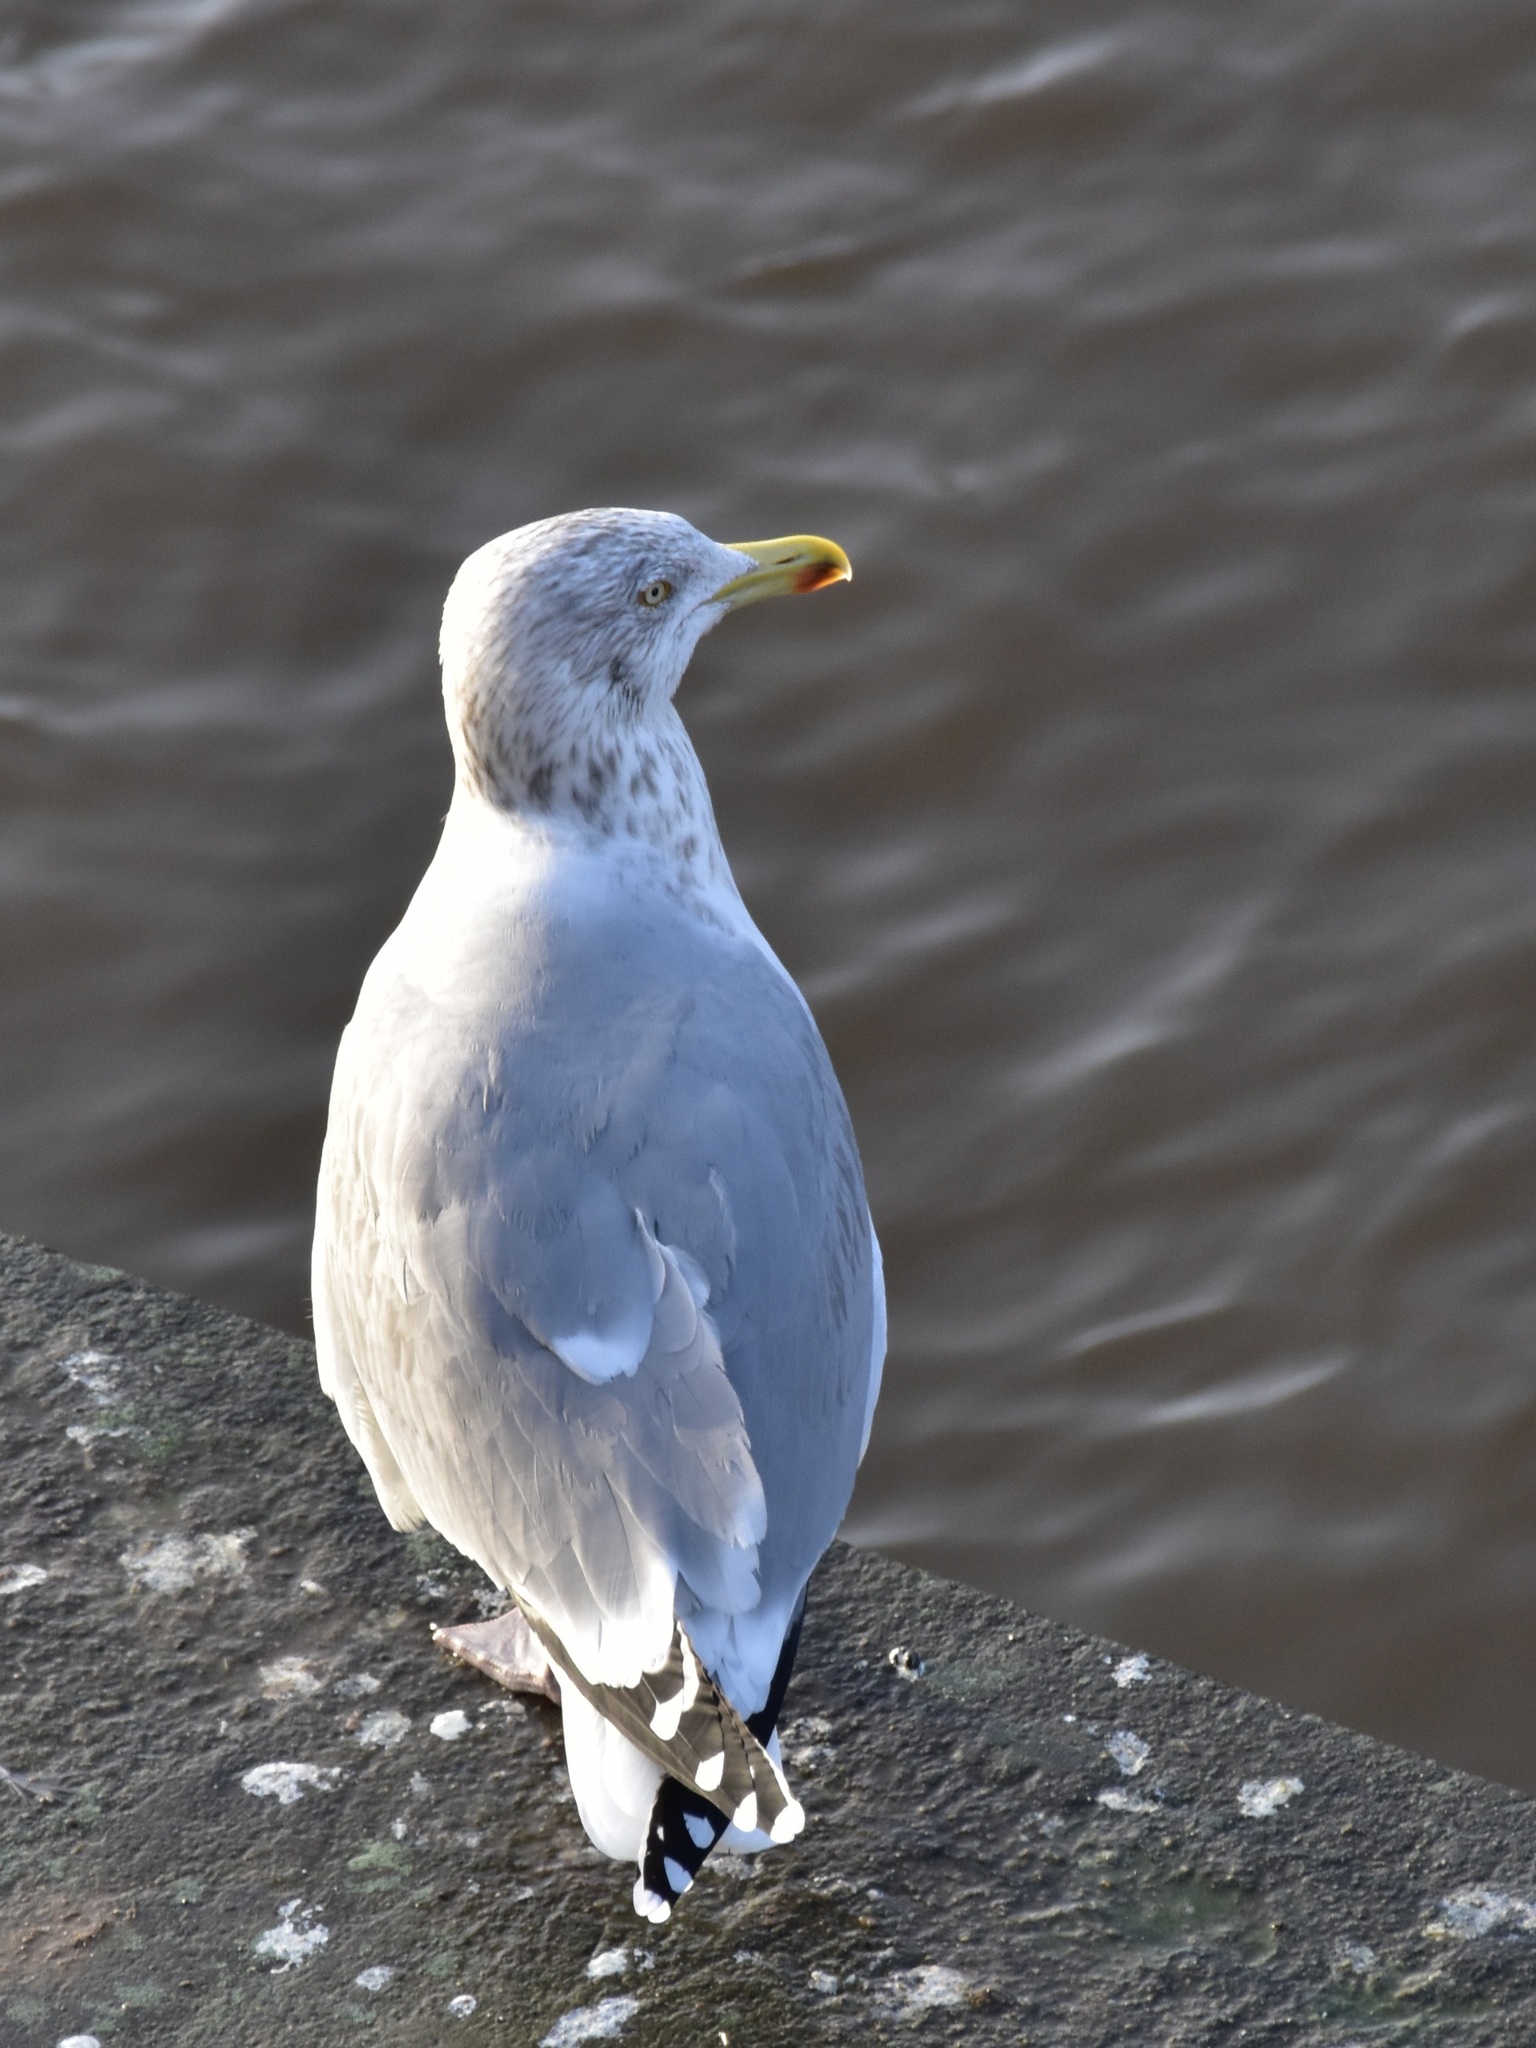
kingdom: Animalia
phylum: Chordata
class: Aves
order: Charadriiformes
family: Laridae
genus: Larus
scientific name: Larus argentatus
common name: Herring gull
